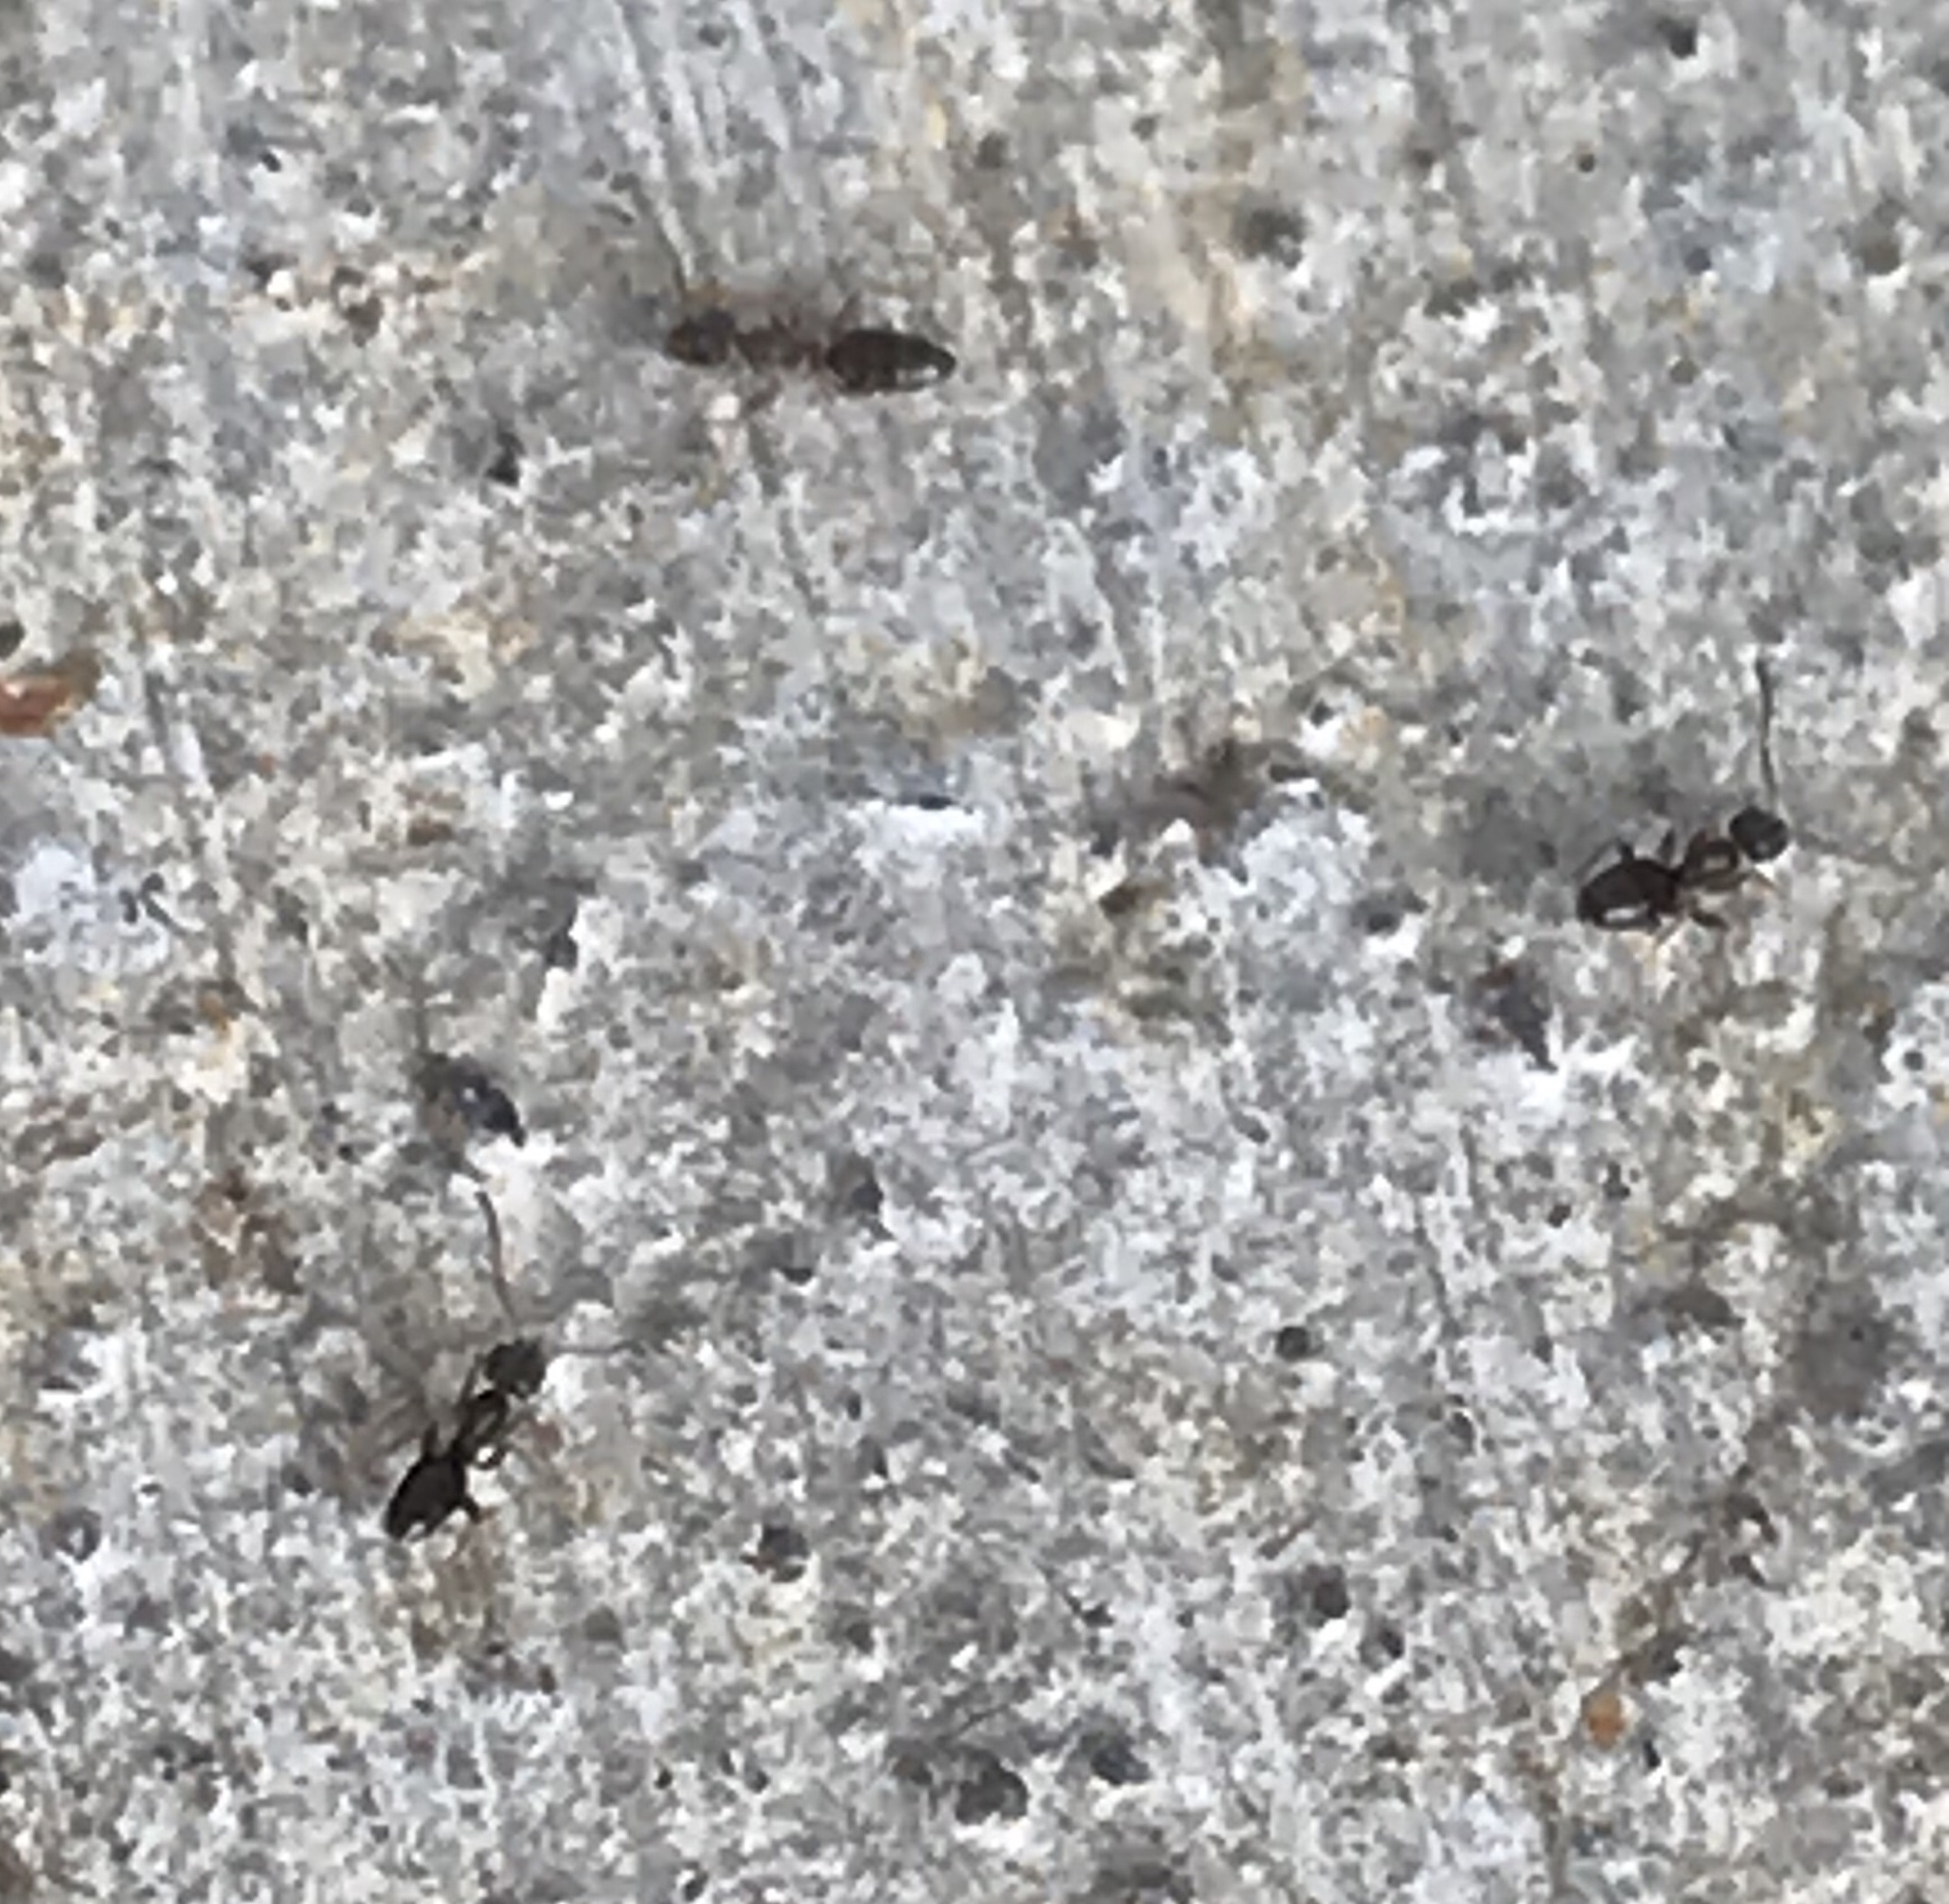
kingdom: Animalia
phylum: Arthropoda
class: Insecta
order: Hymenoptera
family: Formicidae
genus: Tapinoma
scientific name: Tapinoma sessile
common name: Odorous house ant
